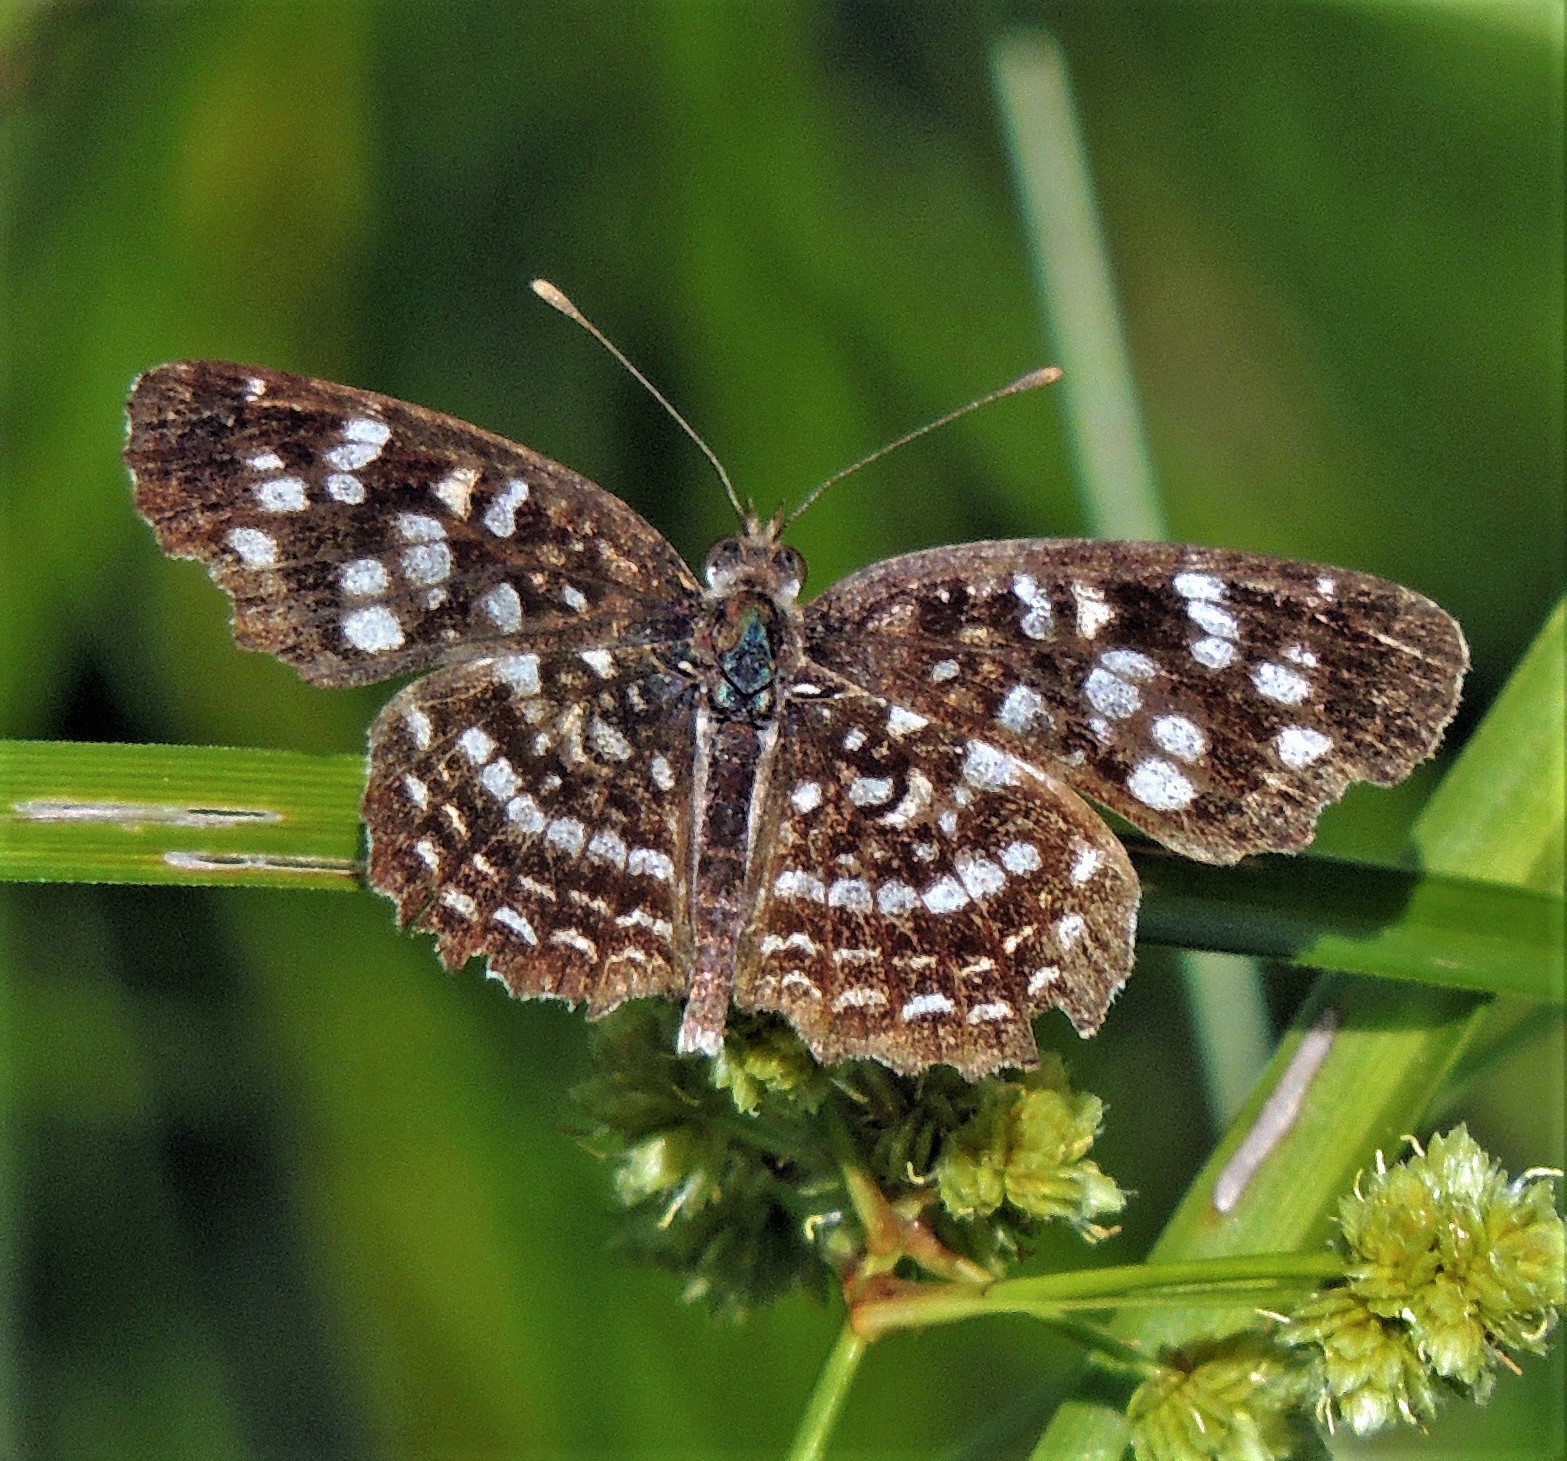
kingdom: Animalia
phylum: Arthropoda
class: Insecta
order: Lepidoptera
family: Nymphalidae
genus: Anthanassa
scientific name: Anthanassa hermas
